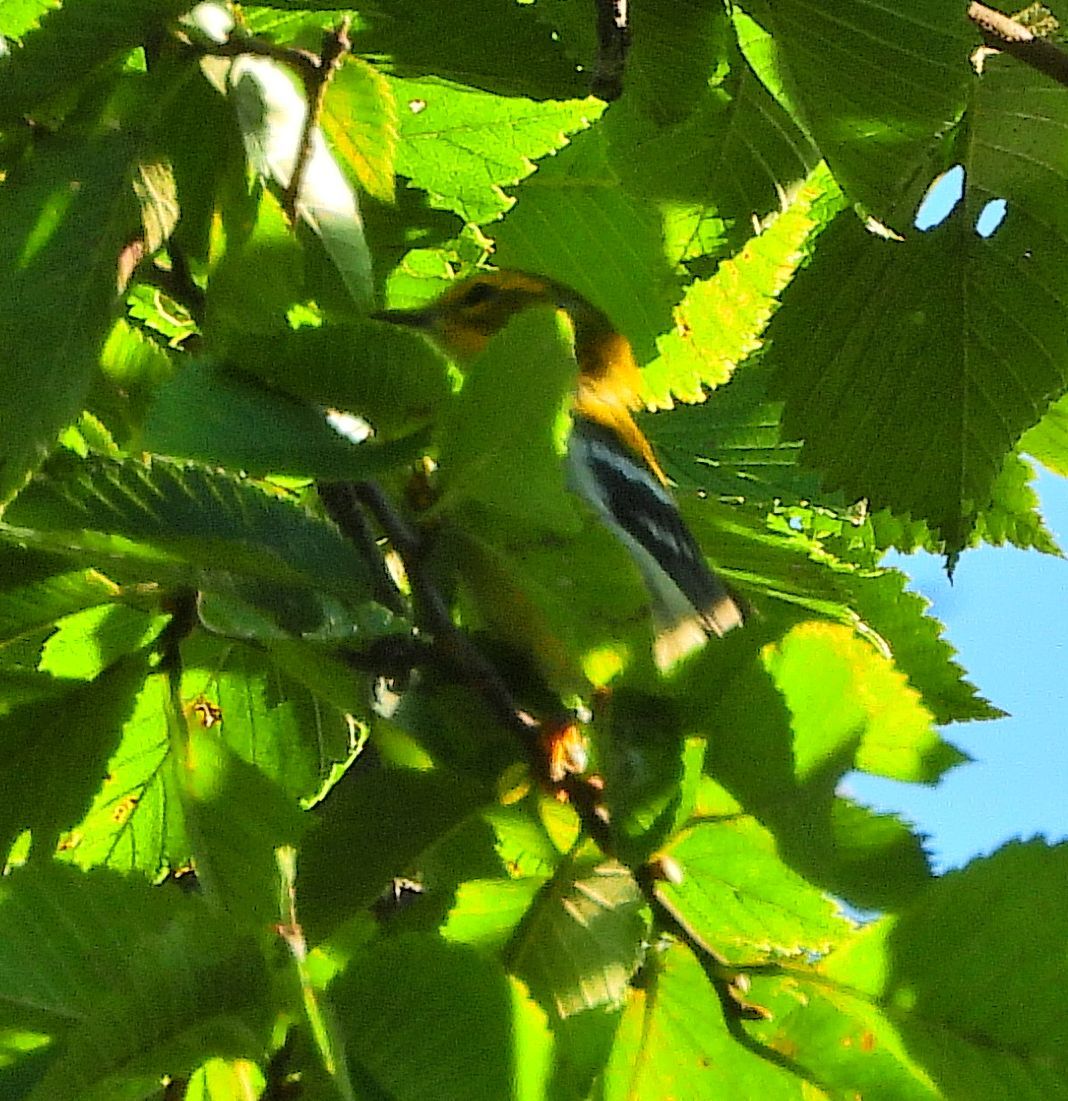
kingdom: Animalia
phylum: Chordata
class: Aves
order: Passeriformes
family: Parulidae
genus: Setophaga
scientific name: Setophaga virens
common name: Black-throated green warbler
